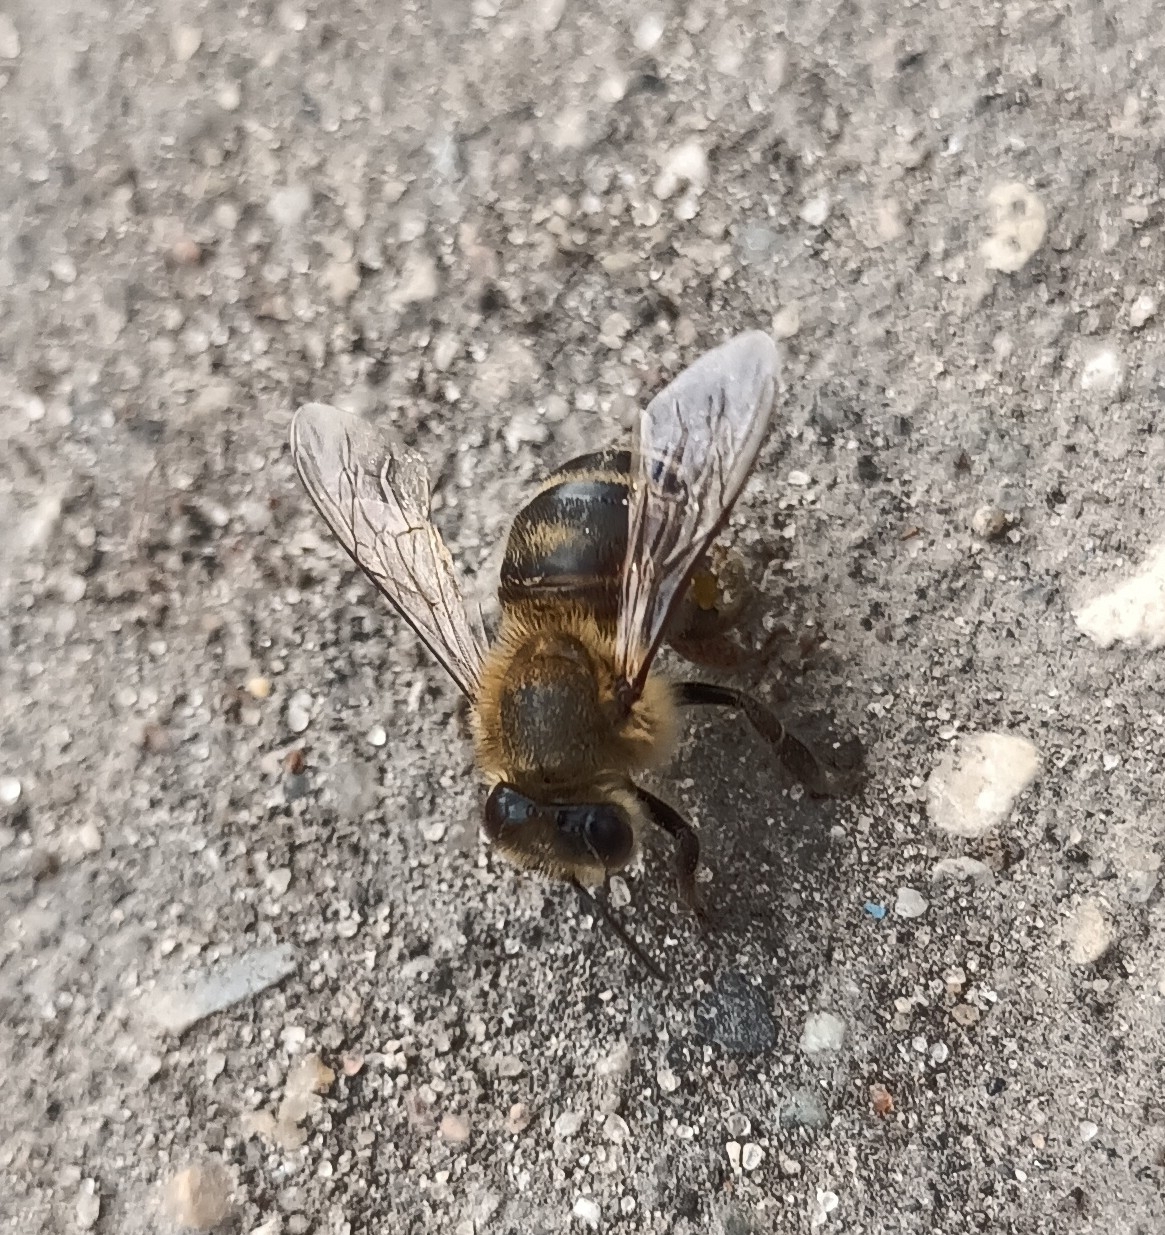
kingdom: Animalia
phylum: Arthropoda
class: Insecta
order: Hymenoptera
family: Apidae
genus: Apis
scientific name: Apis mellifera
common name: Honey bee
